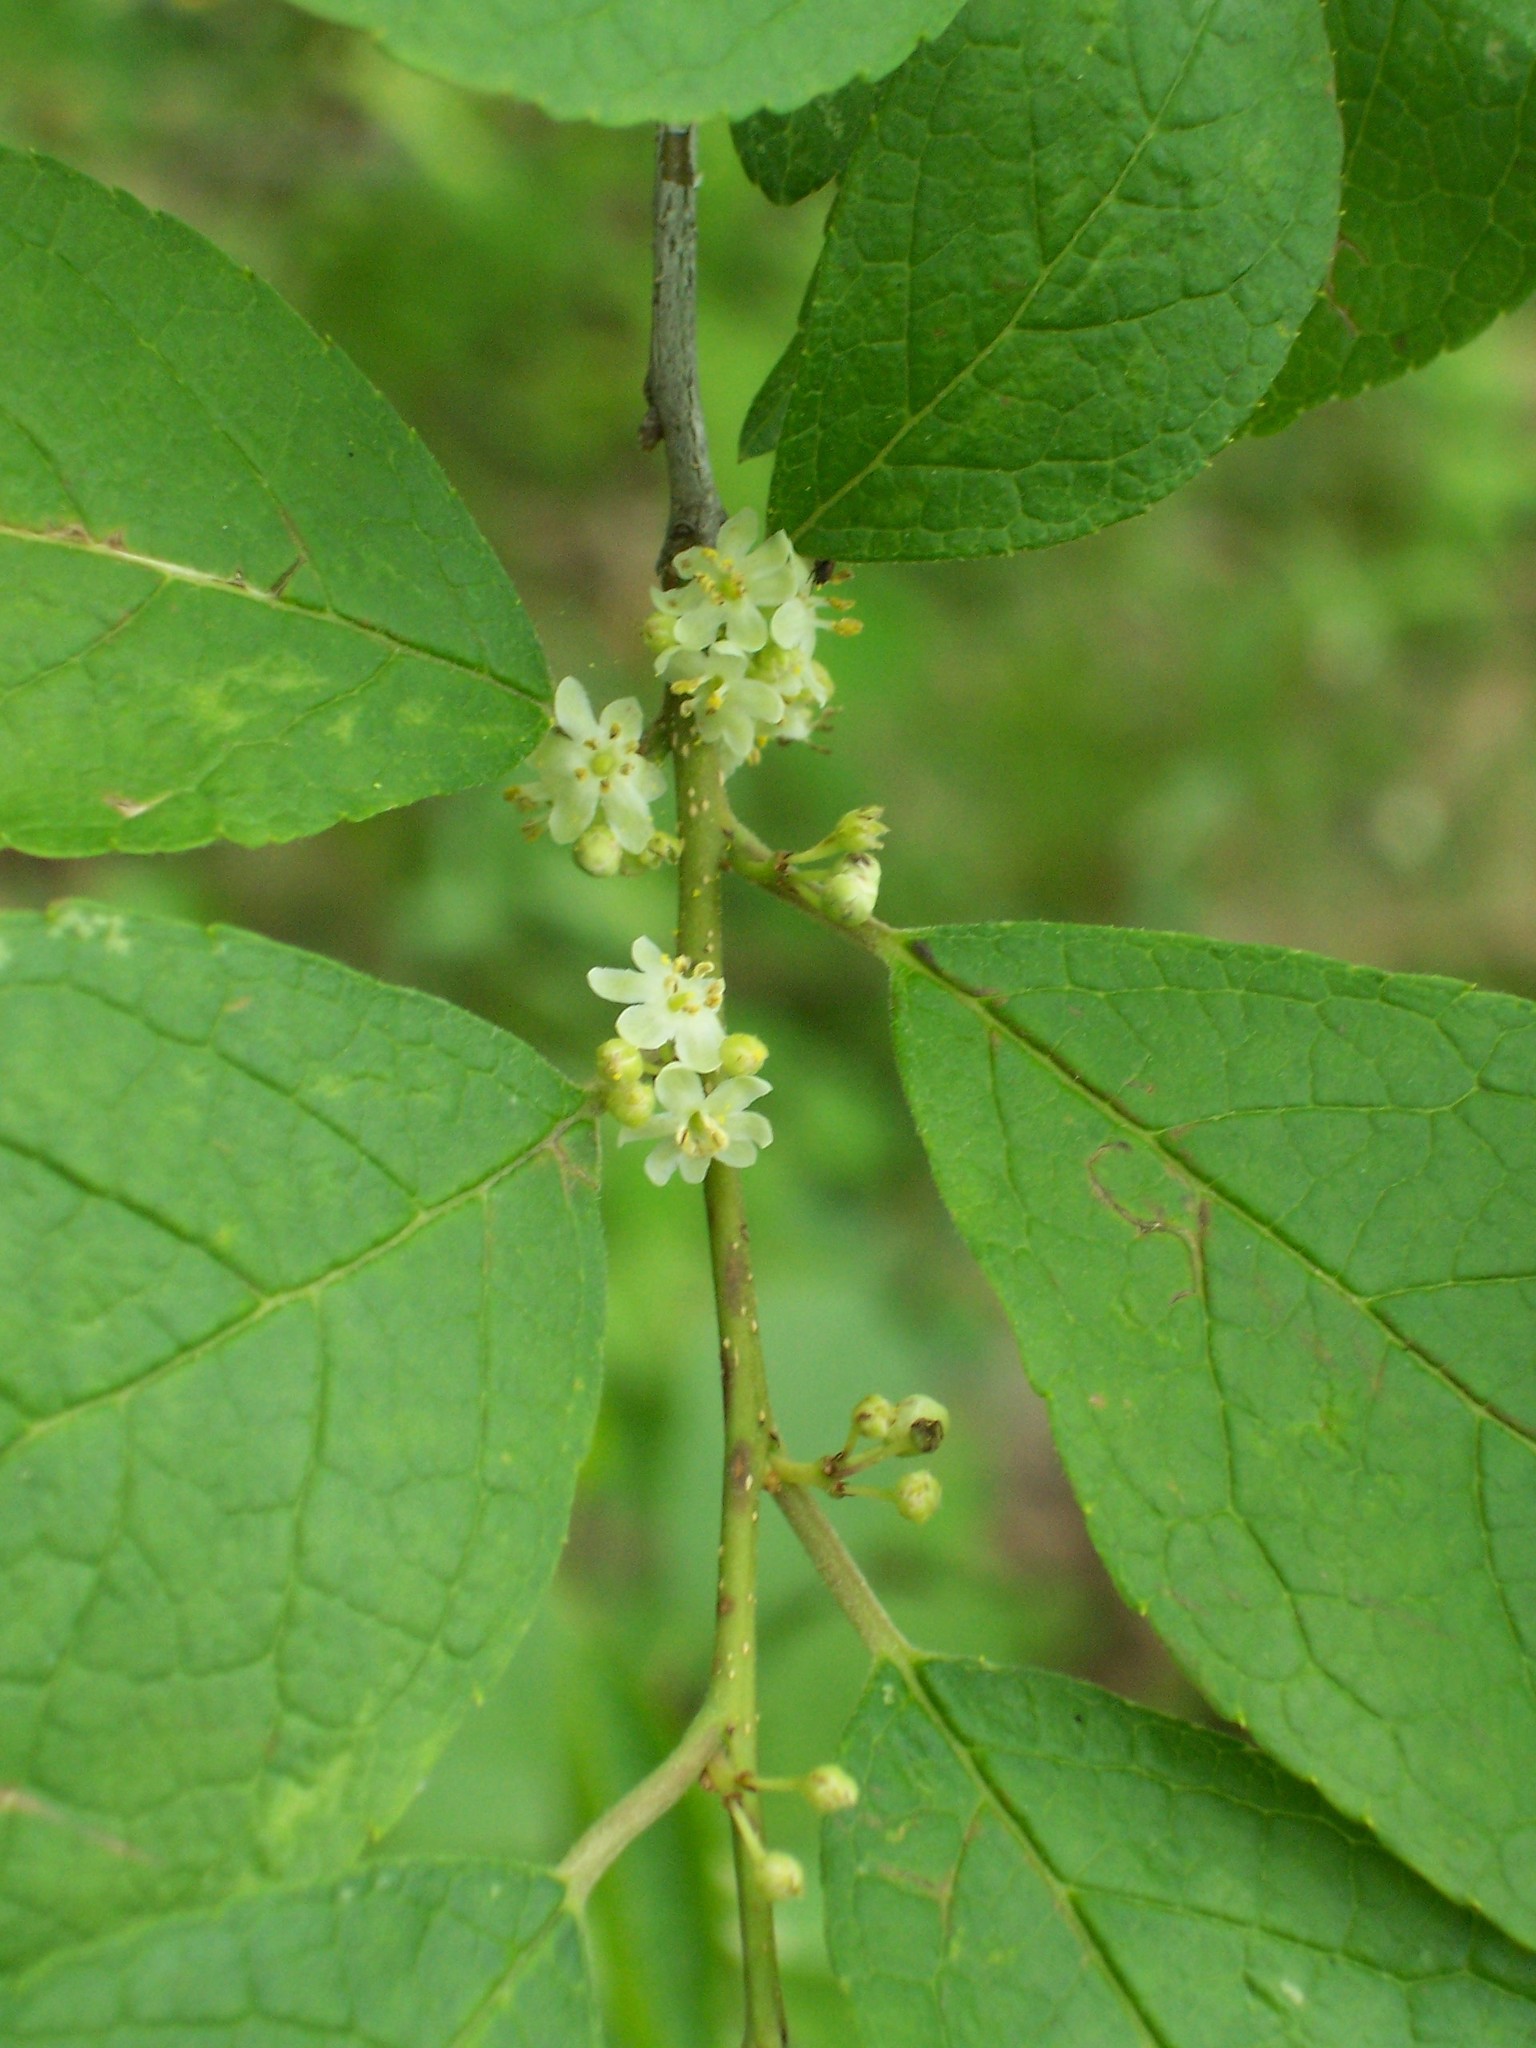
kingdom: Plantae
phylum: Tracheophyta
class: Magnoliopsida
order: Aquifoliales
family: Aquifoliaceae
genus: Ilex
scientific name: Ilex verticillata
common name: Virginia winterberry
